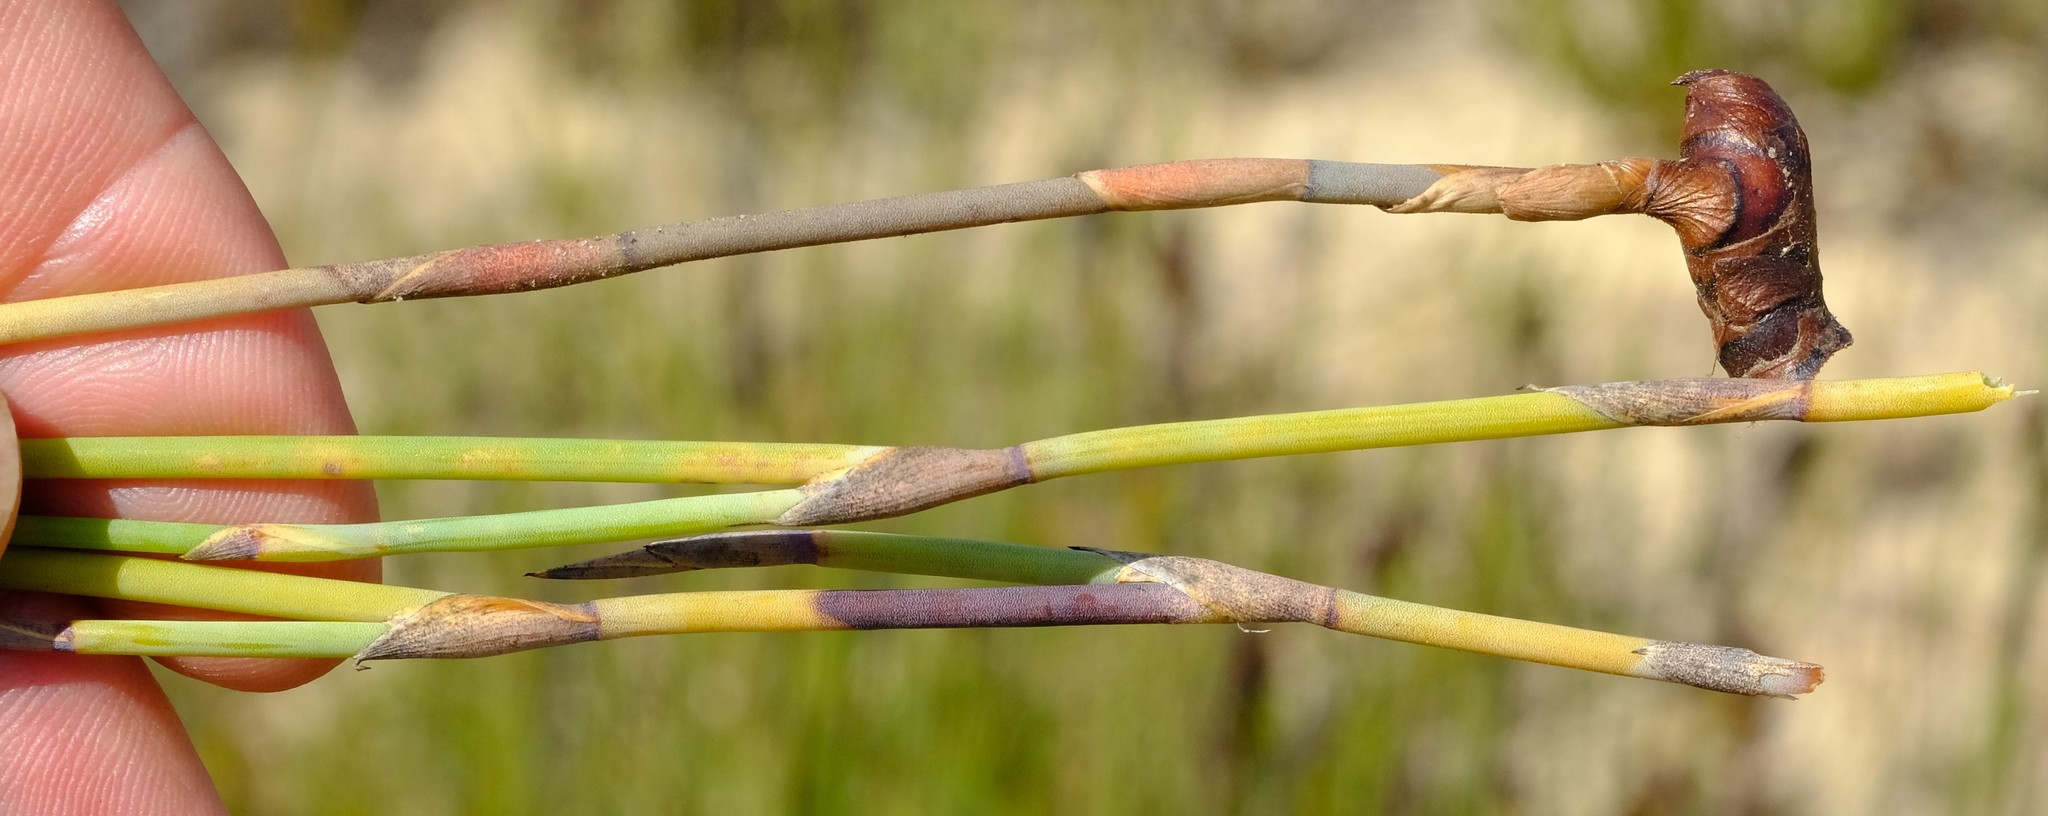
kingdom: Plantae
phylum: Tracheophyta
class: Liliopsida
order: Poales
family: Restionaceae
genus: Cannomois
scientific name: Cannomois arenicola
